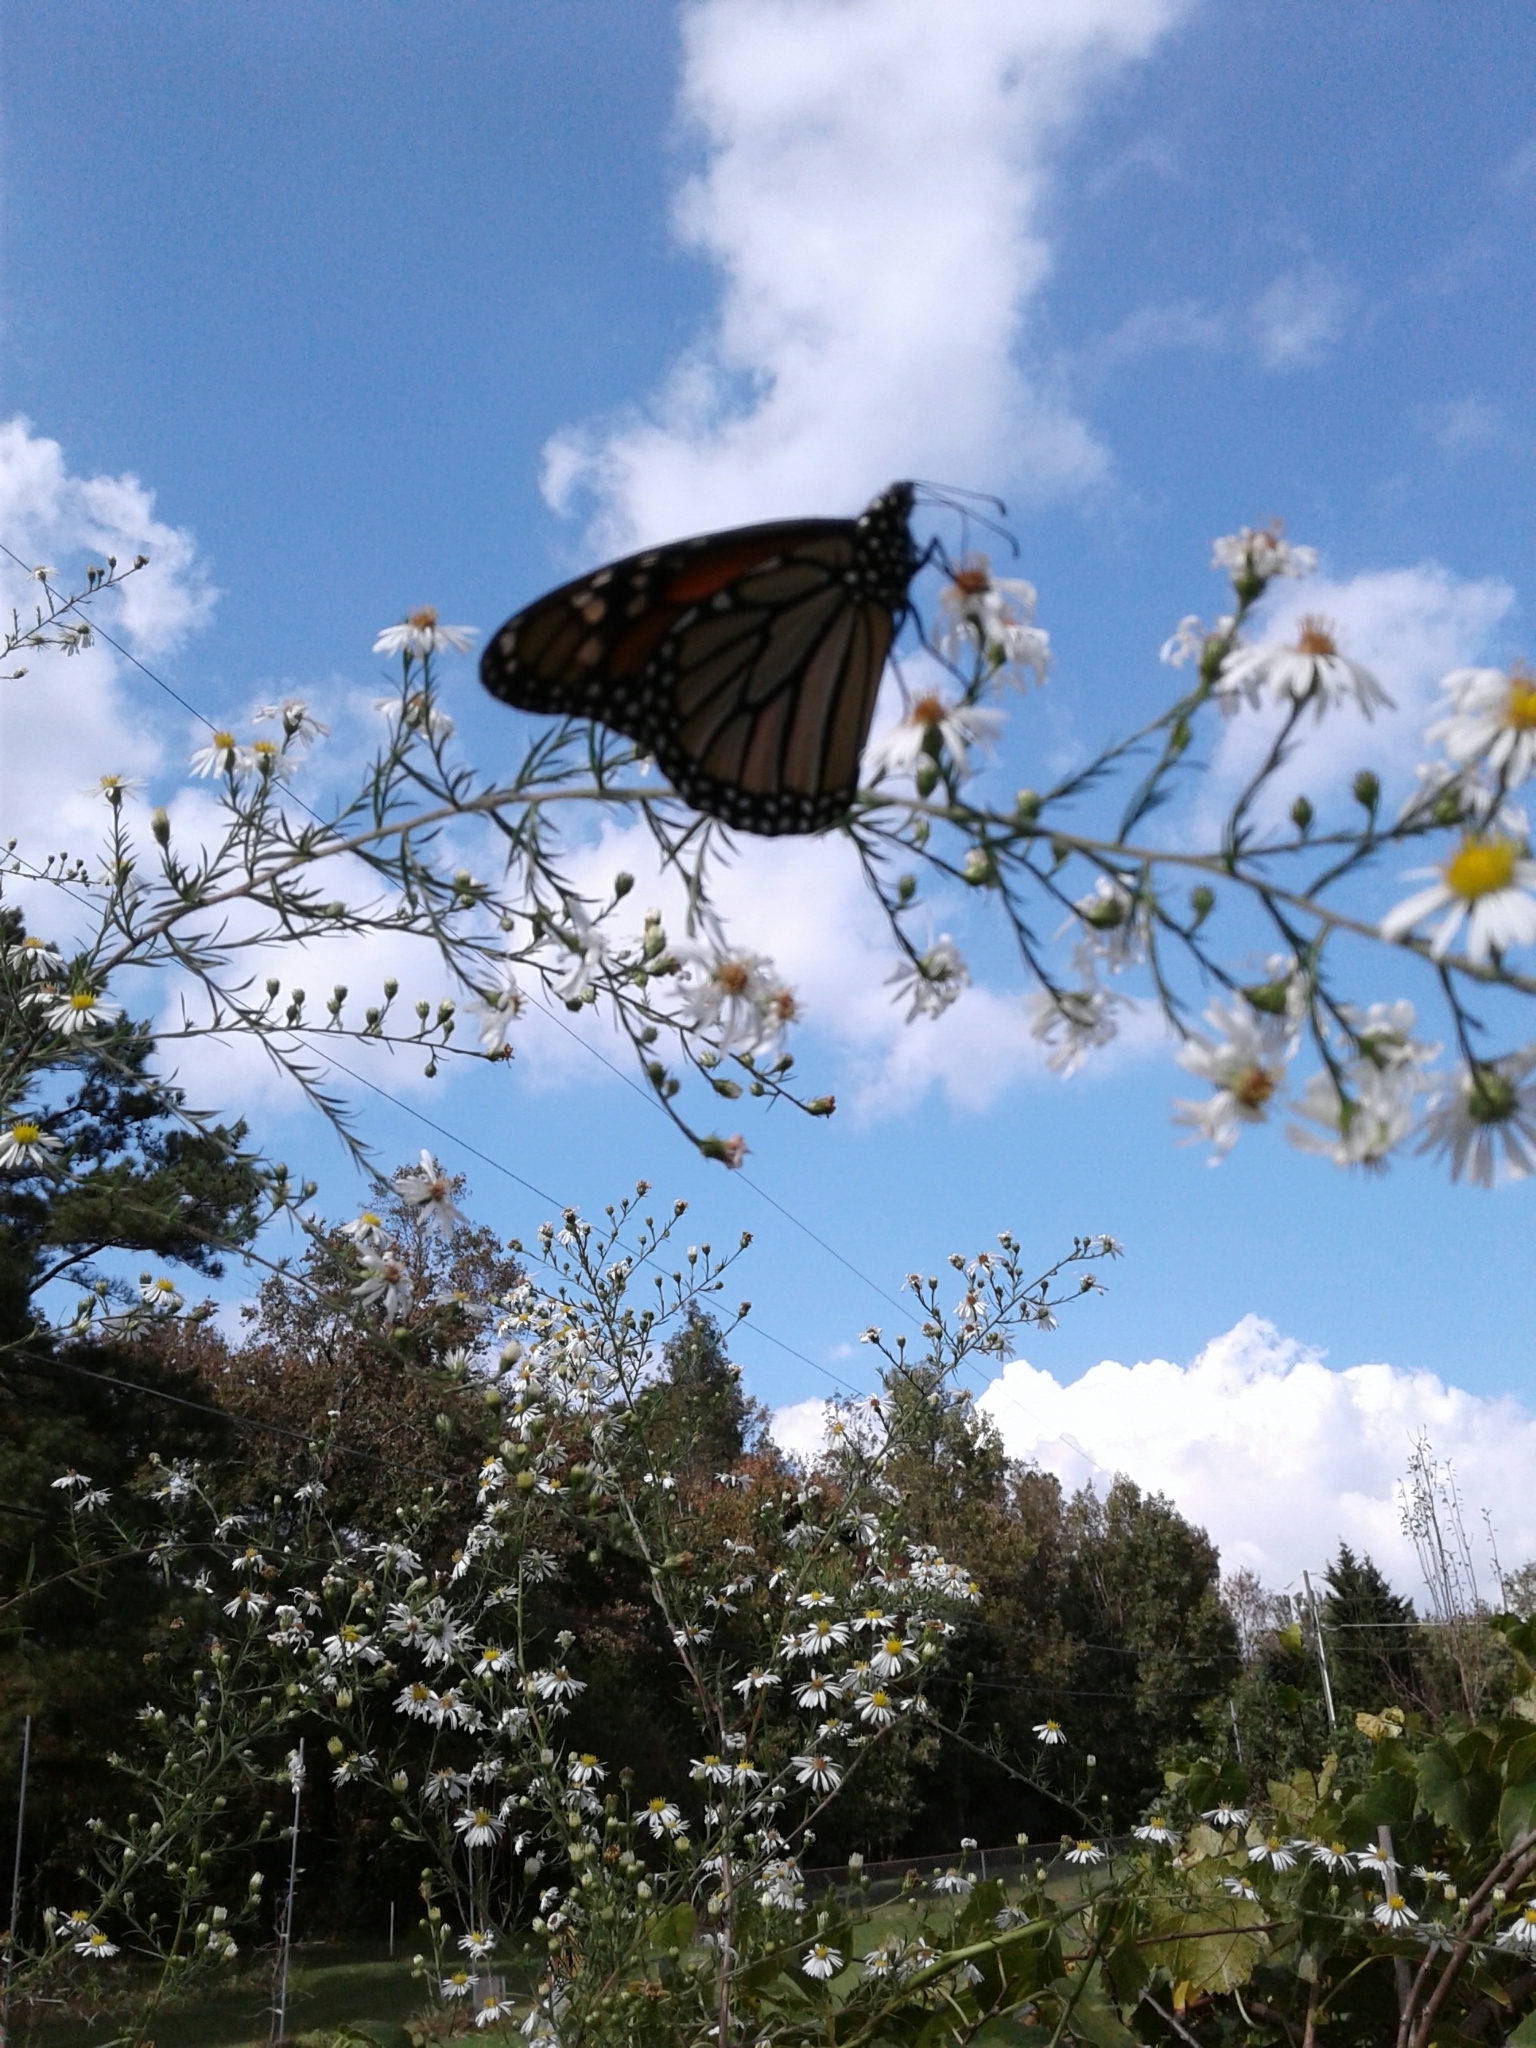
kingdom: Animalia
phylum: Arthropoda
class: Insecta
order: Lepidoptera
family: Nymphalidae
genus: Danaus
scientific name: Danaus plexippus
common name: Monarch
